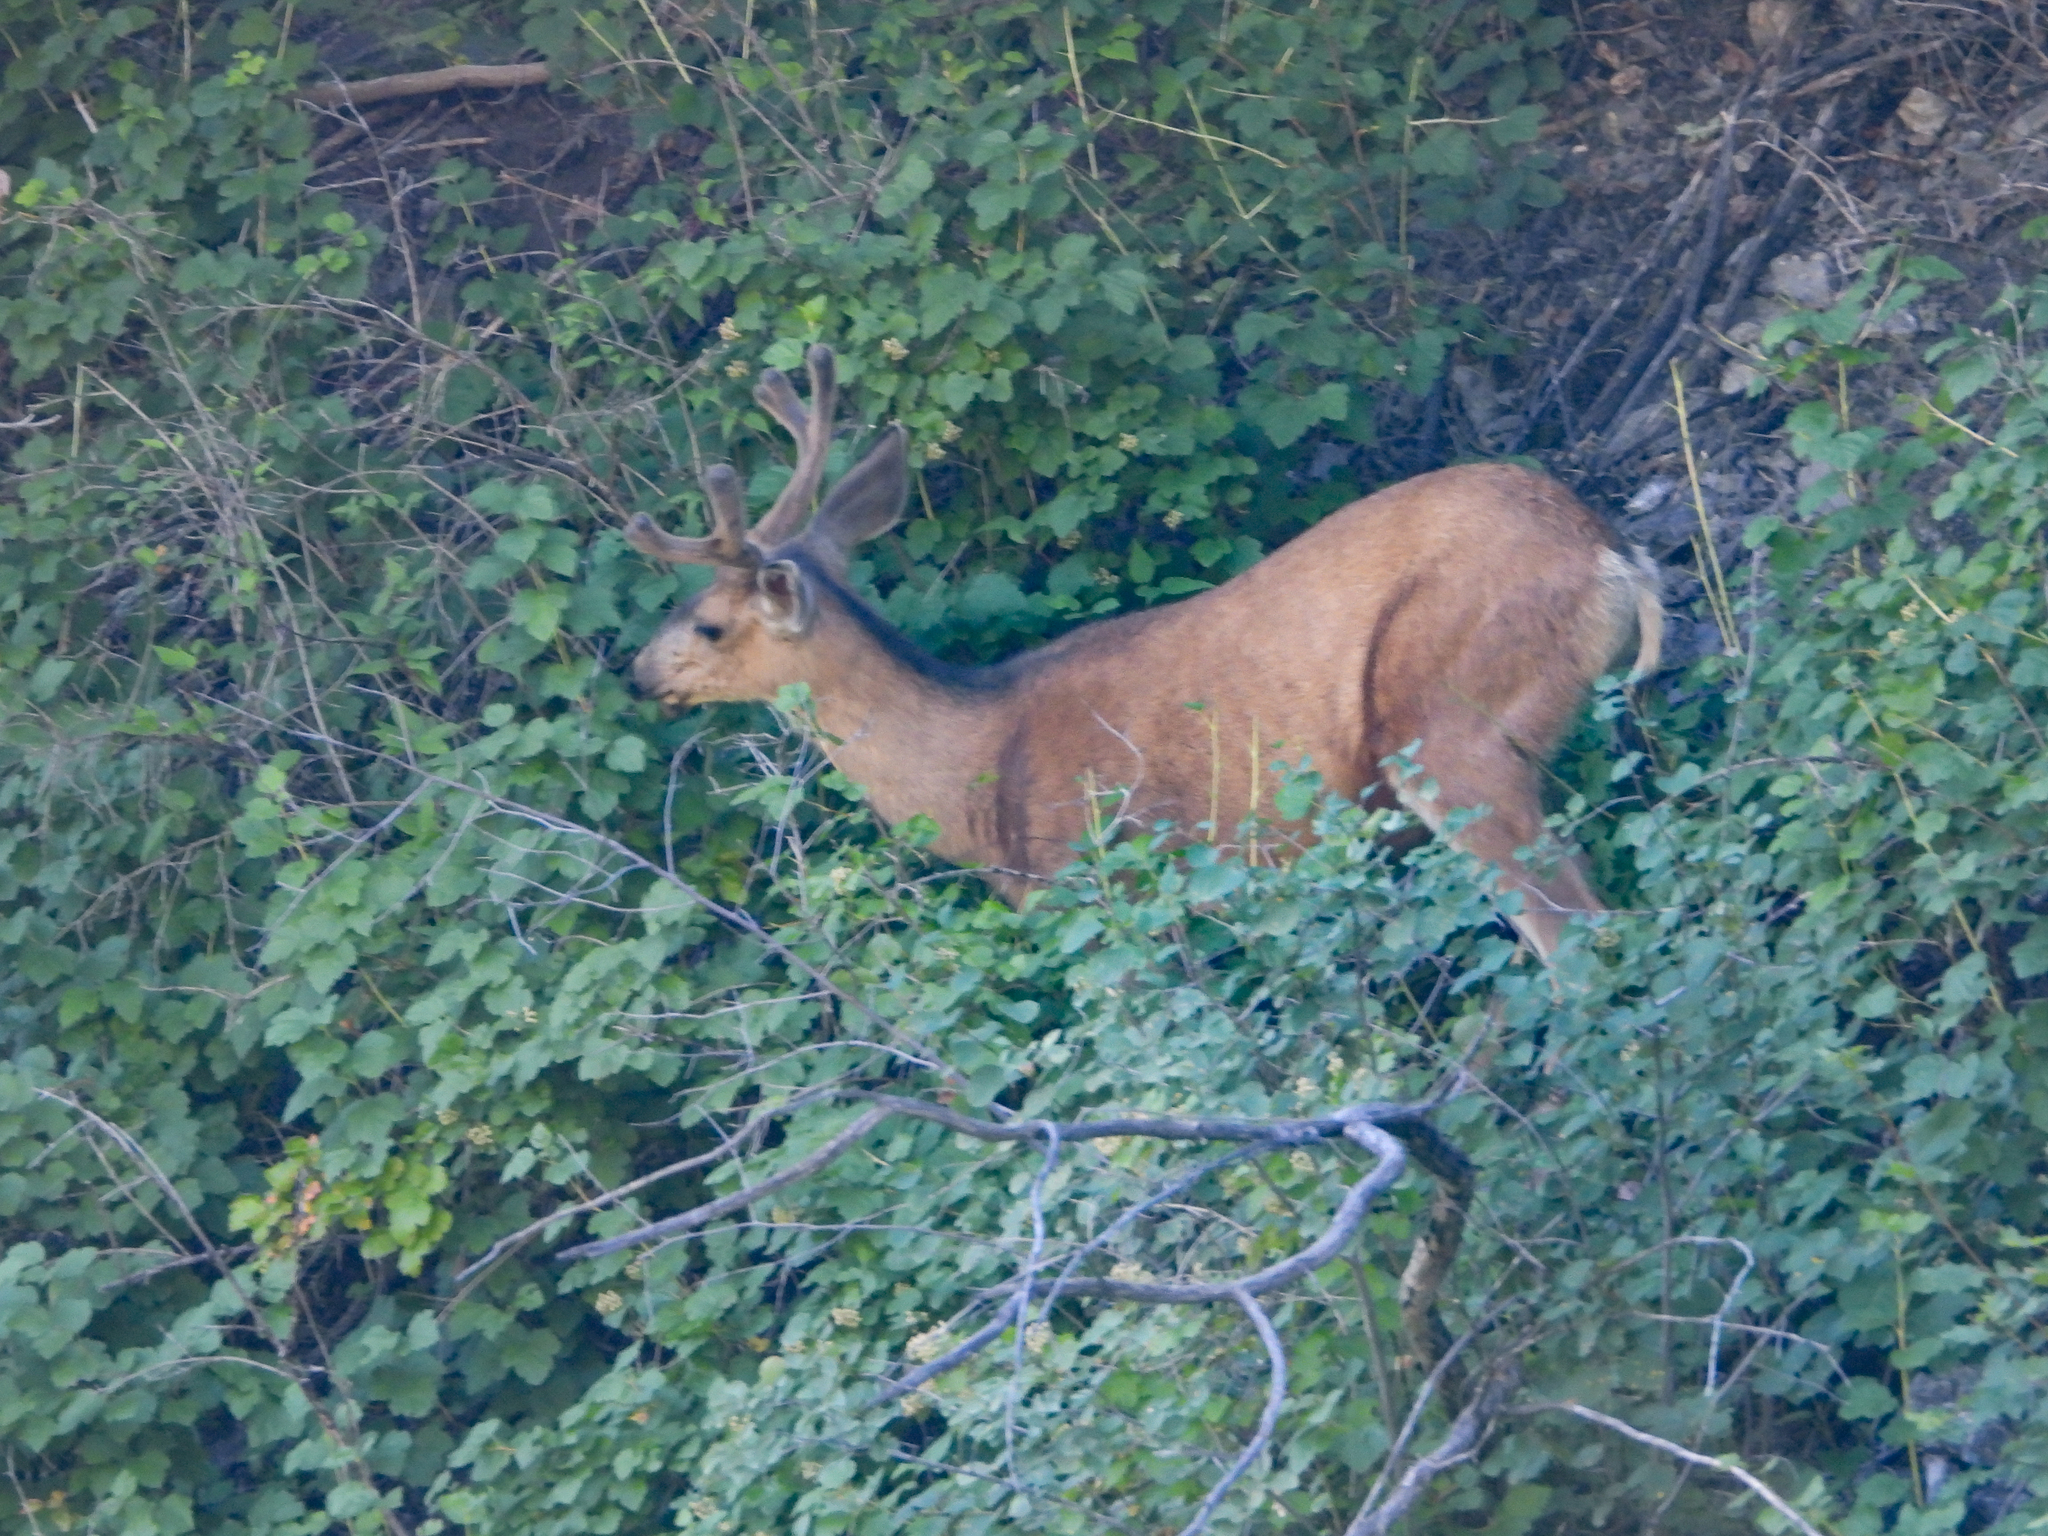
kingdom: Animalia
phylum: Chordata
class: Mammalia
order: Artiodactyla
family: Cervidae
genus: Odocoileus
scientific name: Odocoileus hemionus
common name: Mule deer
